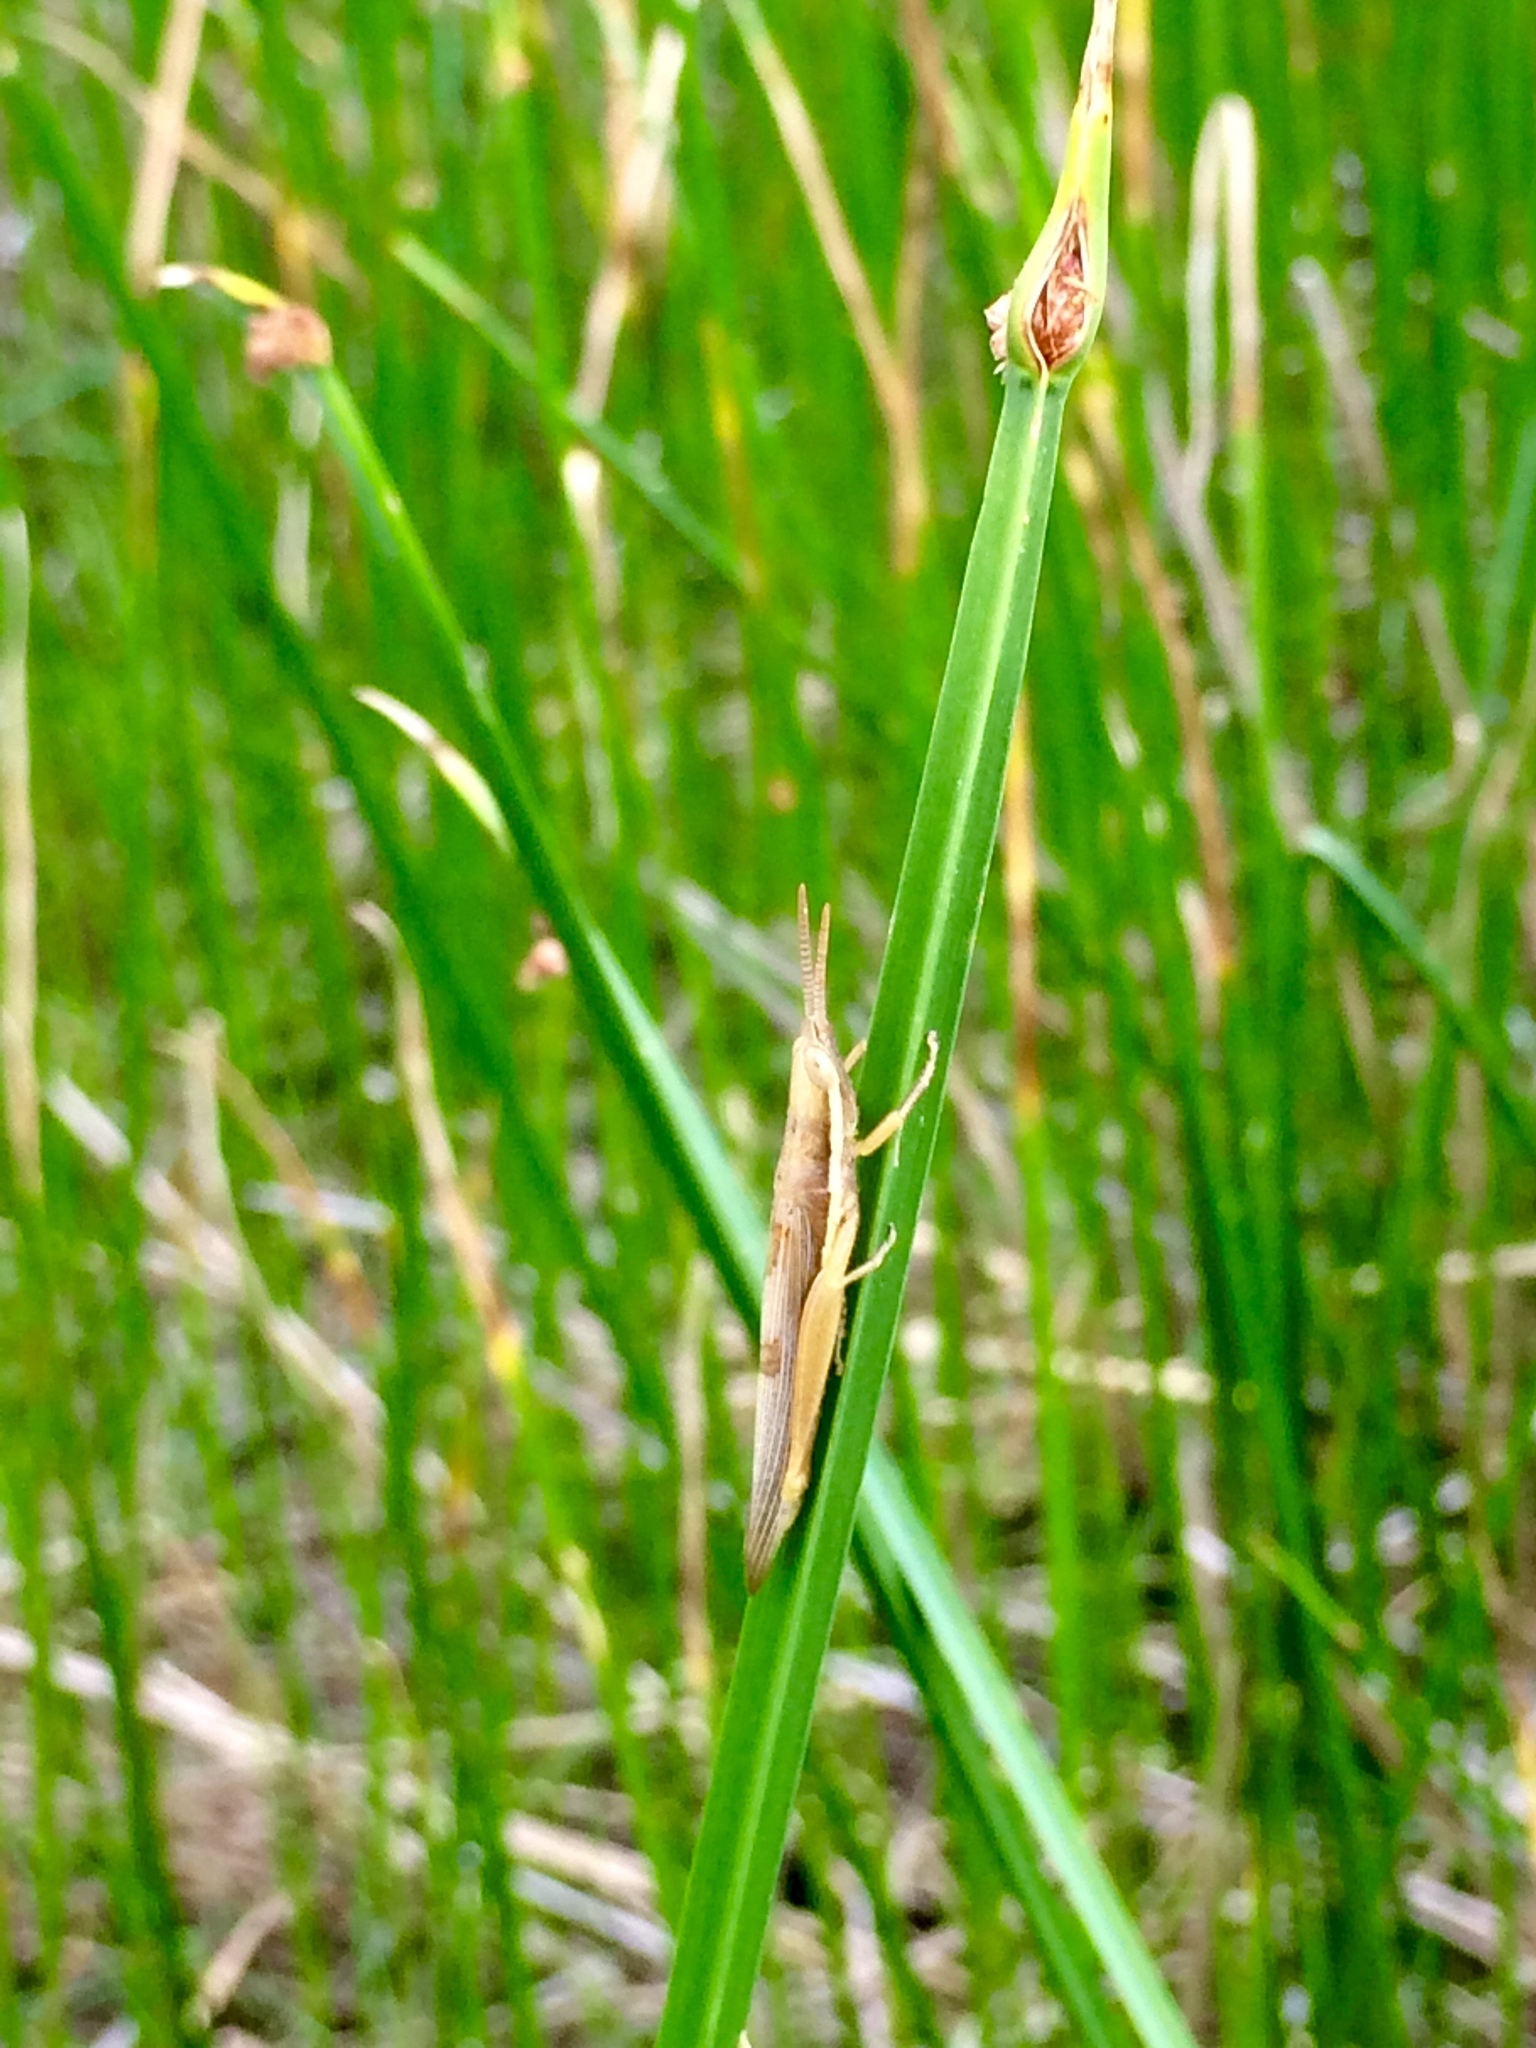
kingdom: Animalia
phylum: Arthropoda
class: Insecta
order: Orthoptera
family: Acrididae
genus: Leptysma
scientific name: Leptysma marginicollis
